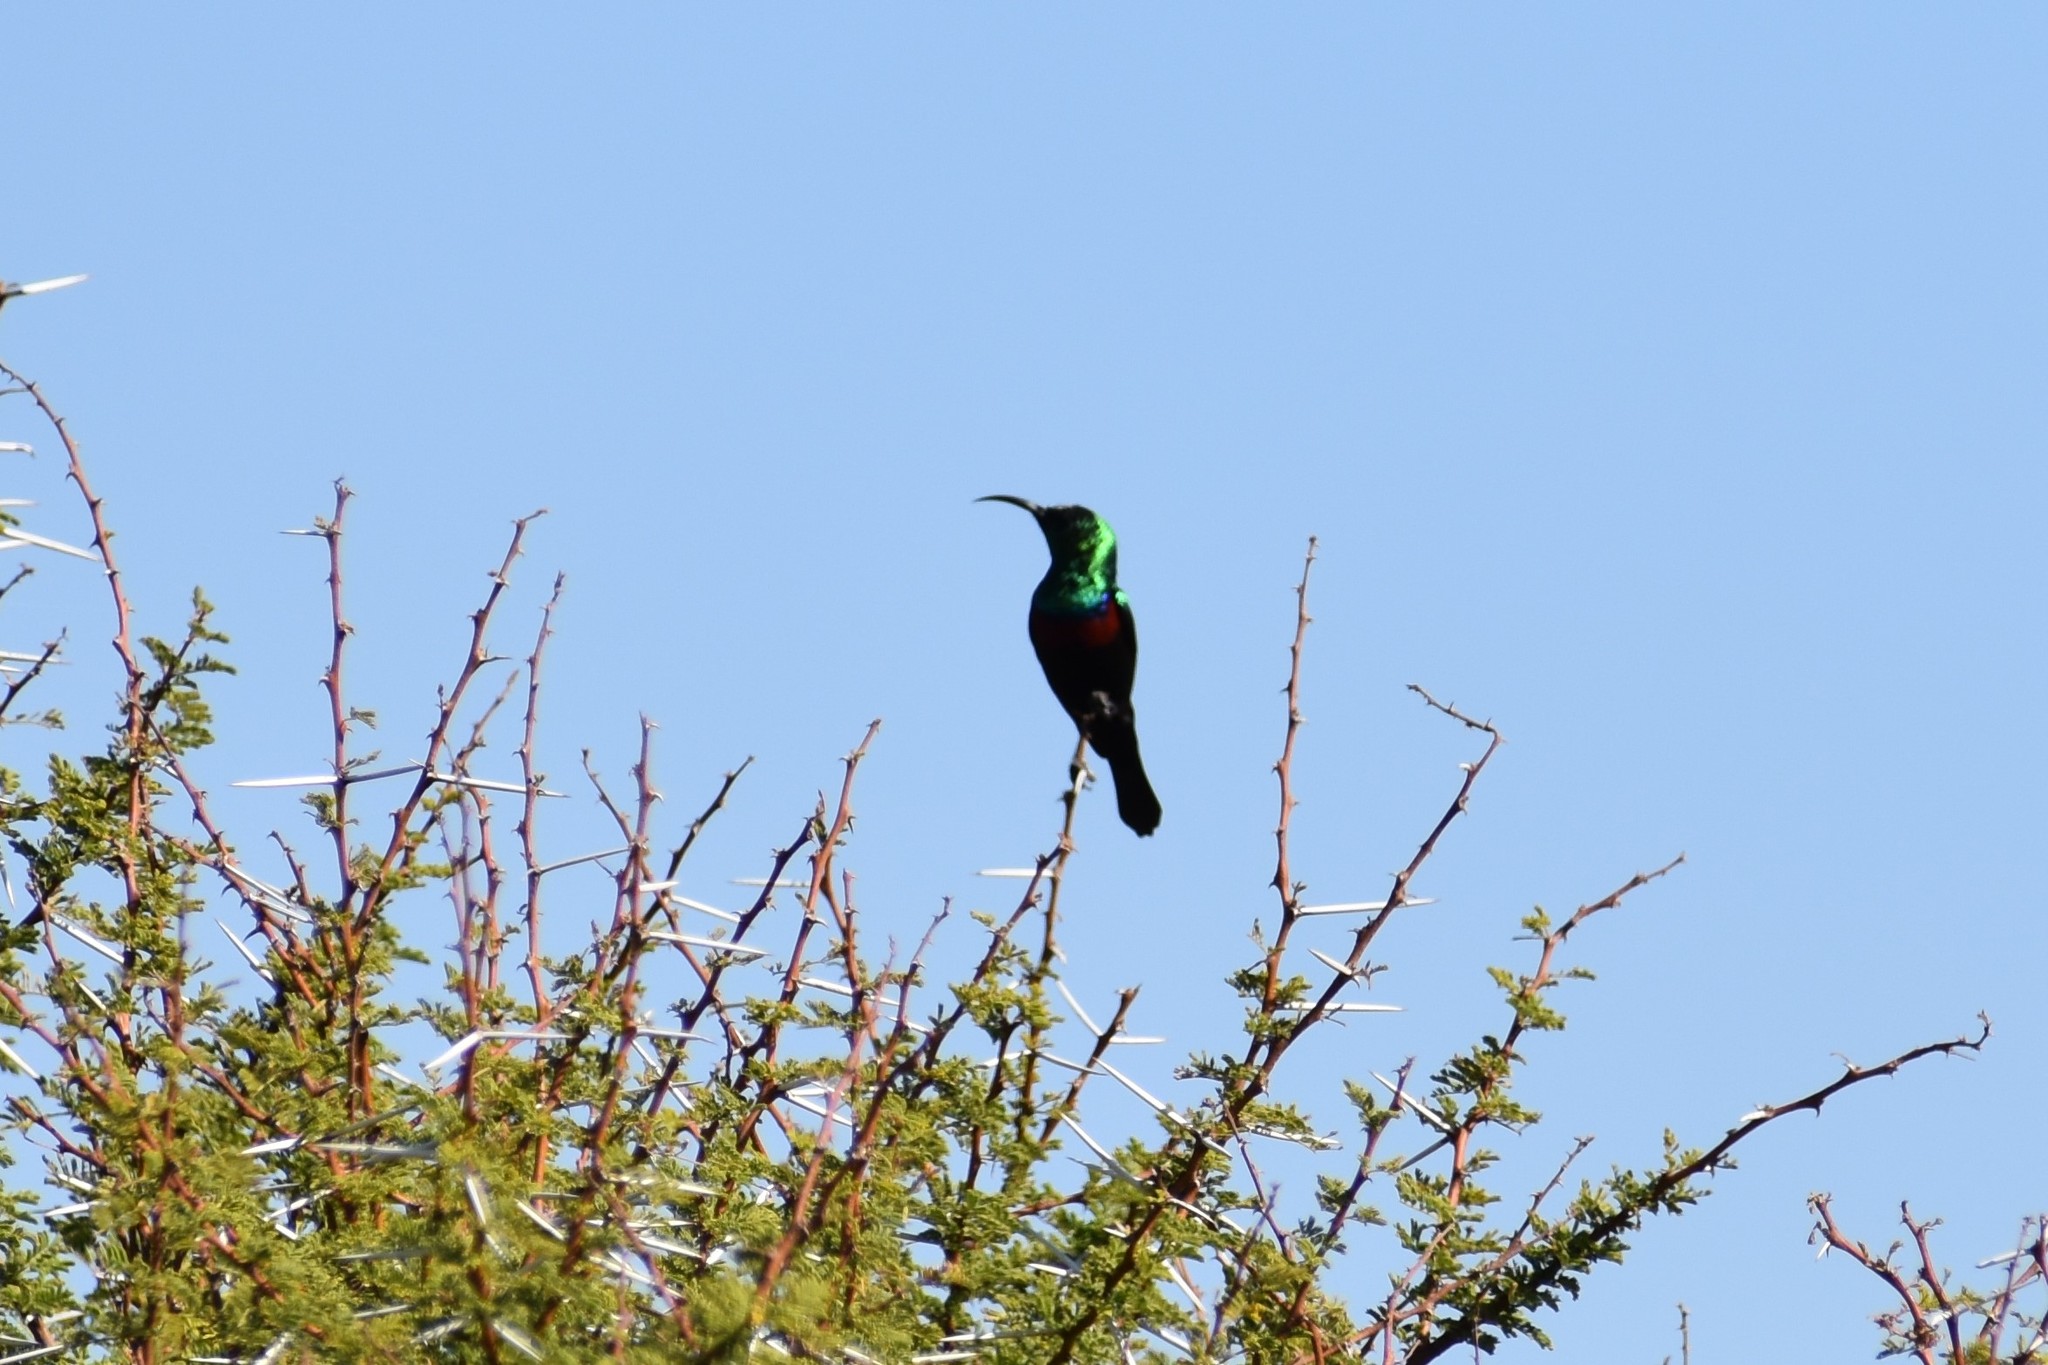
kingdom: Animalia
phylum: Chordata
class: Aves
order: Passeriformes
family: Nectariniidae
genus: Cinnyris
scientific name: Cinnyris mariquensis
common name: Marico sunbird
